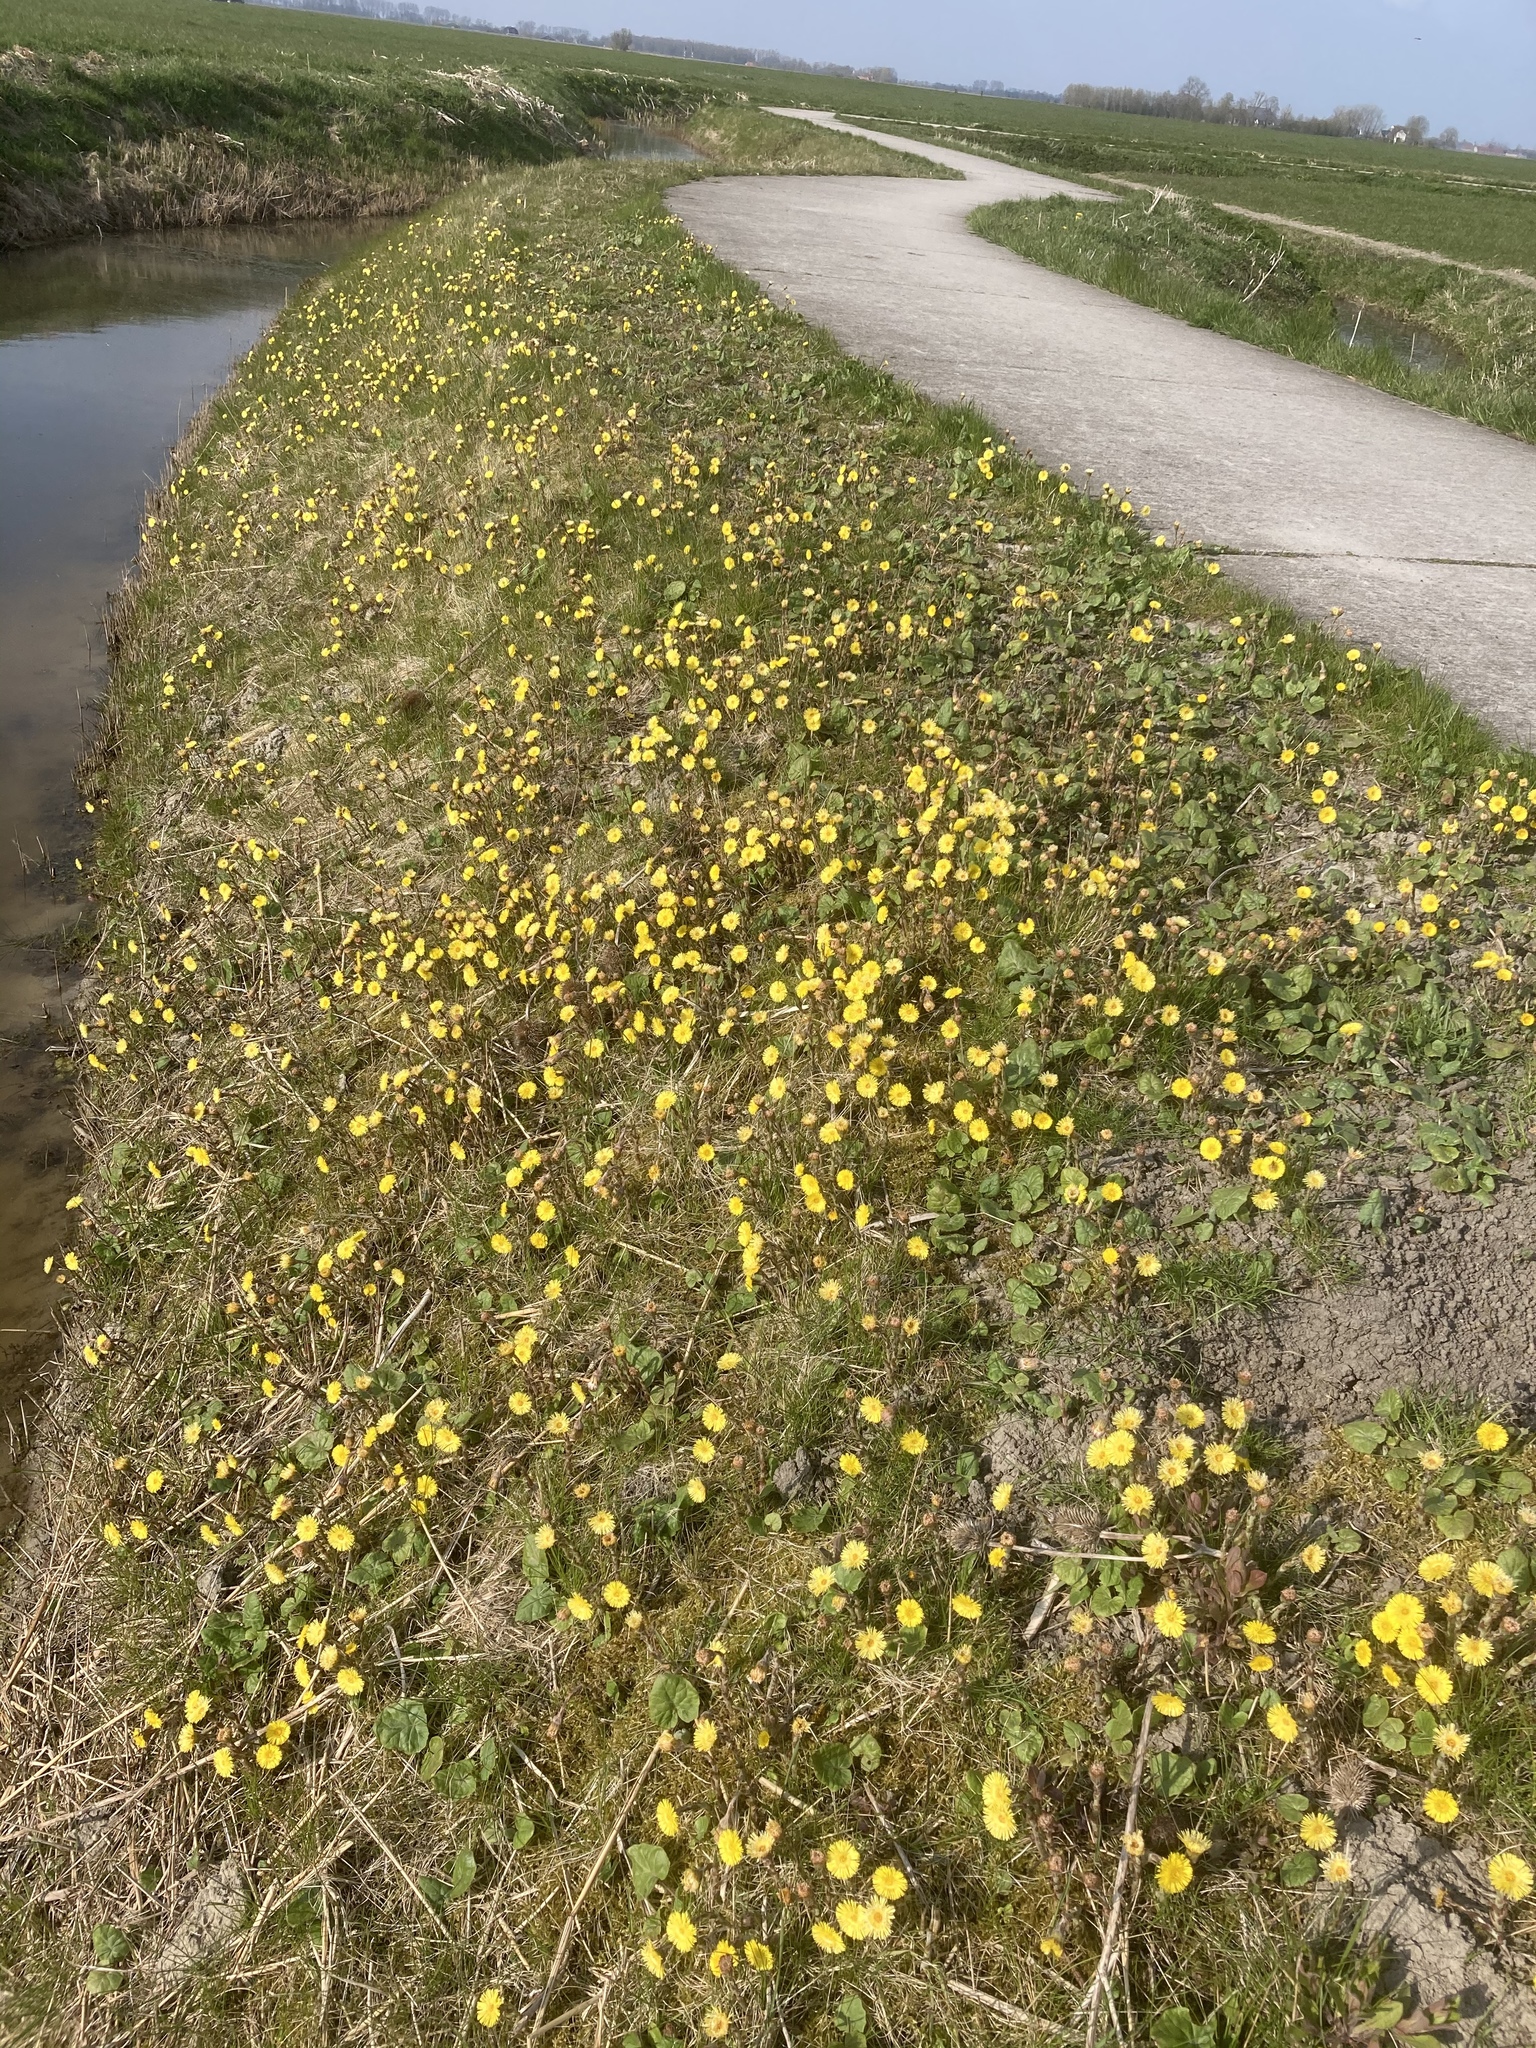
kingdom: Plantae
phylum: Tracheophyta
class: Magnoliopsida
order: Asterales
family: Asteraceae
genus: Tussilago
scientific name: Tussilago farfara
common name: Coltsfoot
